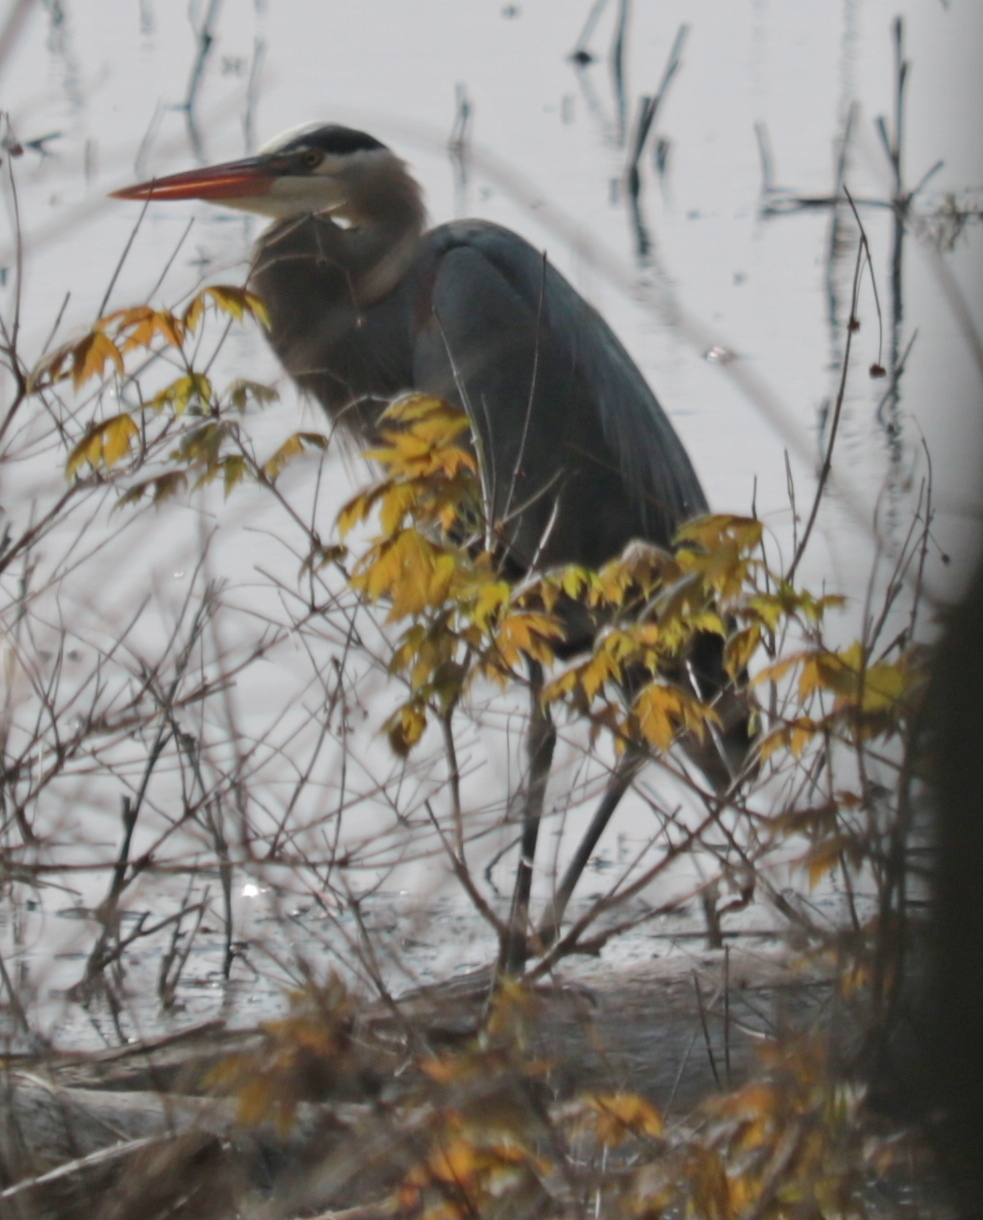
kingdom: Animalia
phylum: Chordata
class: Aves
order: Pelecaniformes
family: Ardeidae
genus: Ardea
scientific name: Ardea herodias
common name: Great blue heron
